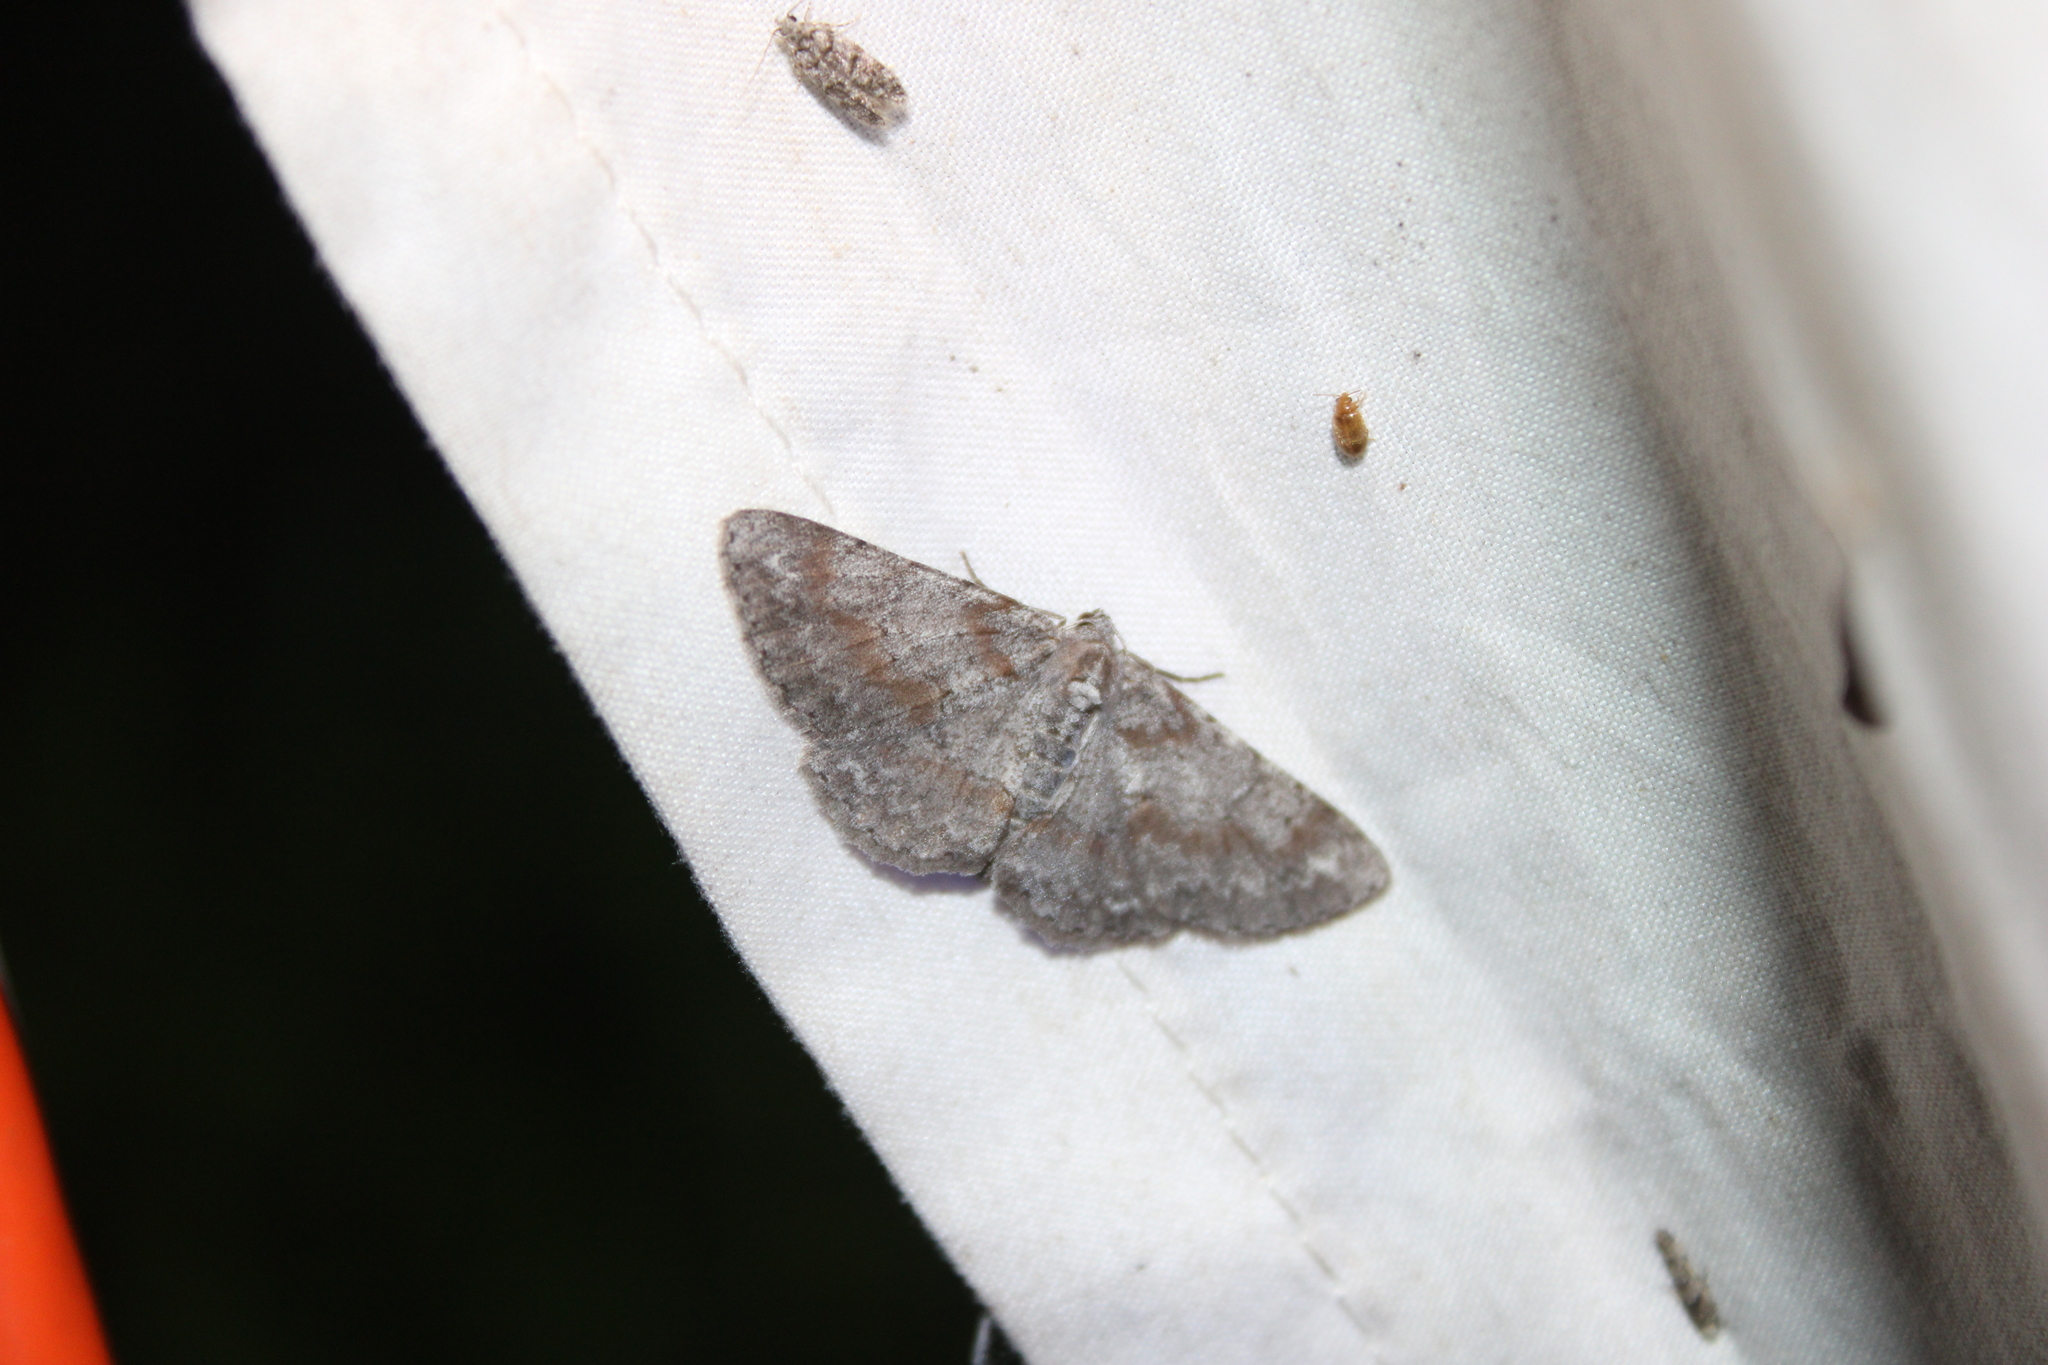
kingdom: Animalia
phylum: Arthropoda
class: Insecta
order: Lepidoptera
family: Geometridae
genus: Iridopsis
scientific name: Iridopsis vellivolata
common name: Large purplish gray
